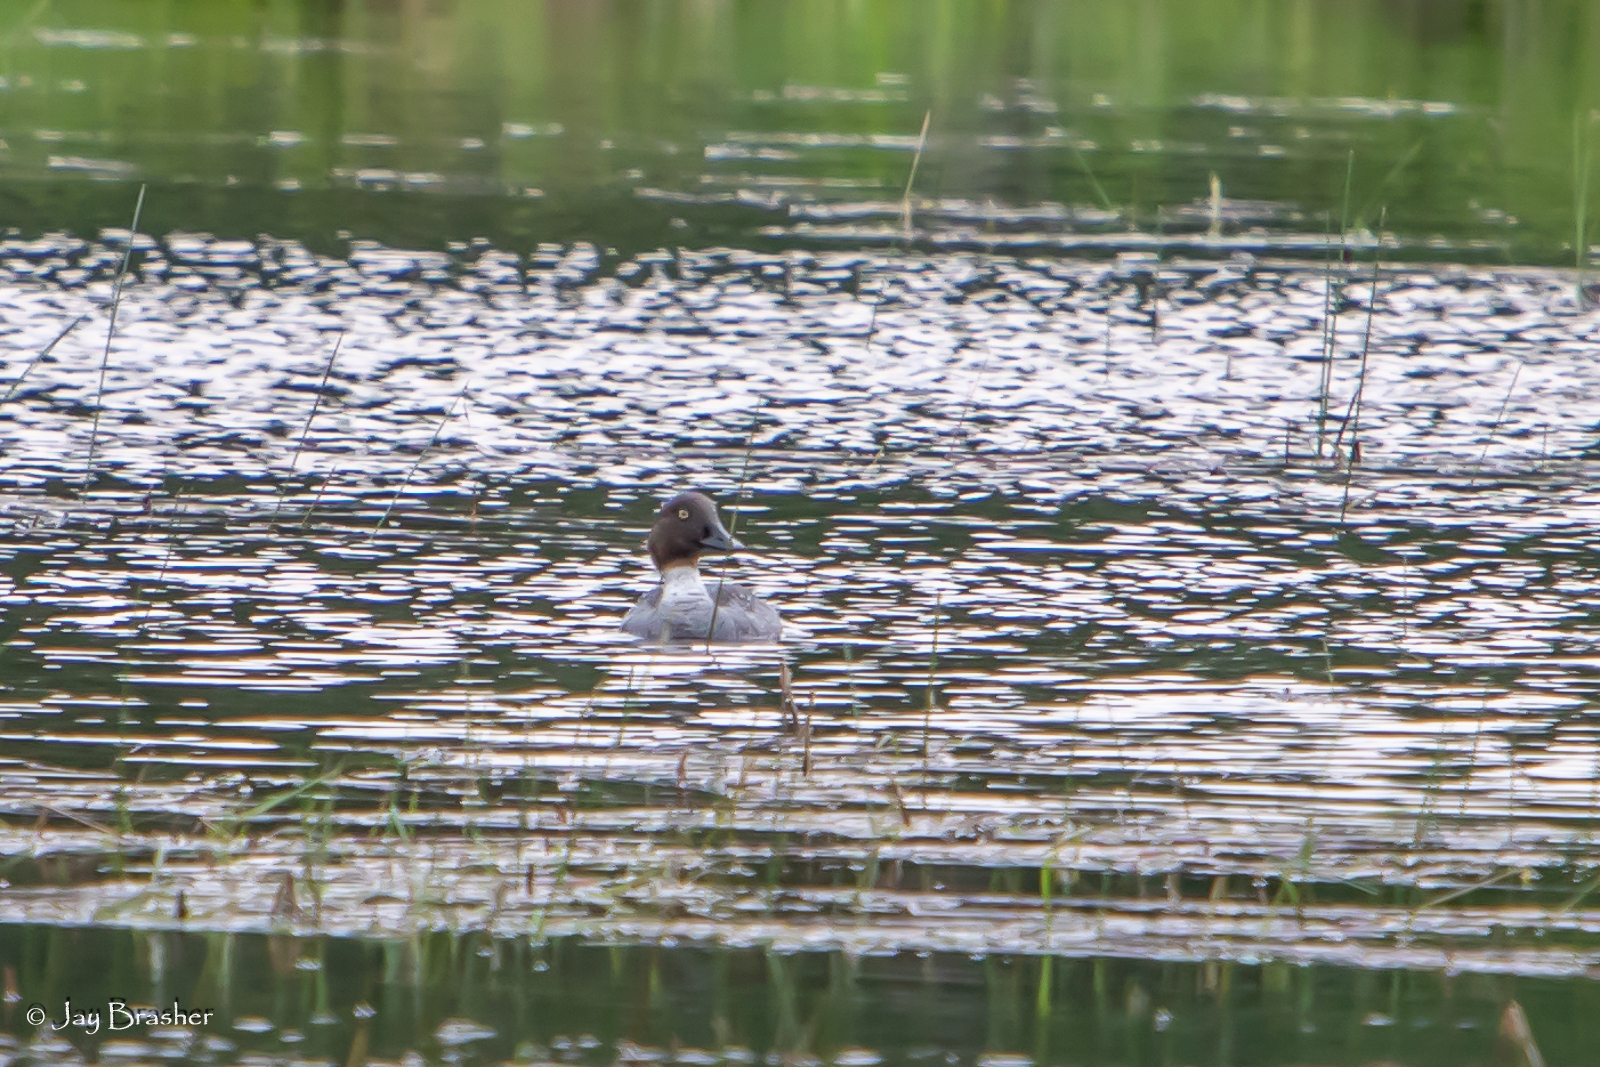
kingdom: Animalia
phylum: Chordata
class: Aves
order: Anseriformes
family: Anatidae
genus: Bucephala
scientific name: Bucephala clangula
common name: Common goldeneye
